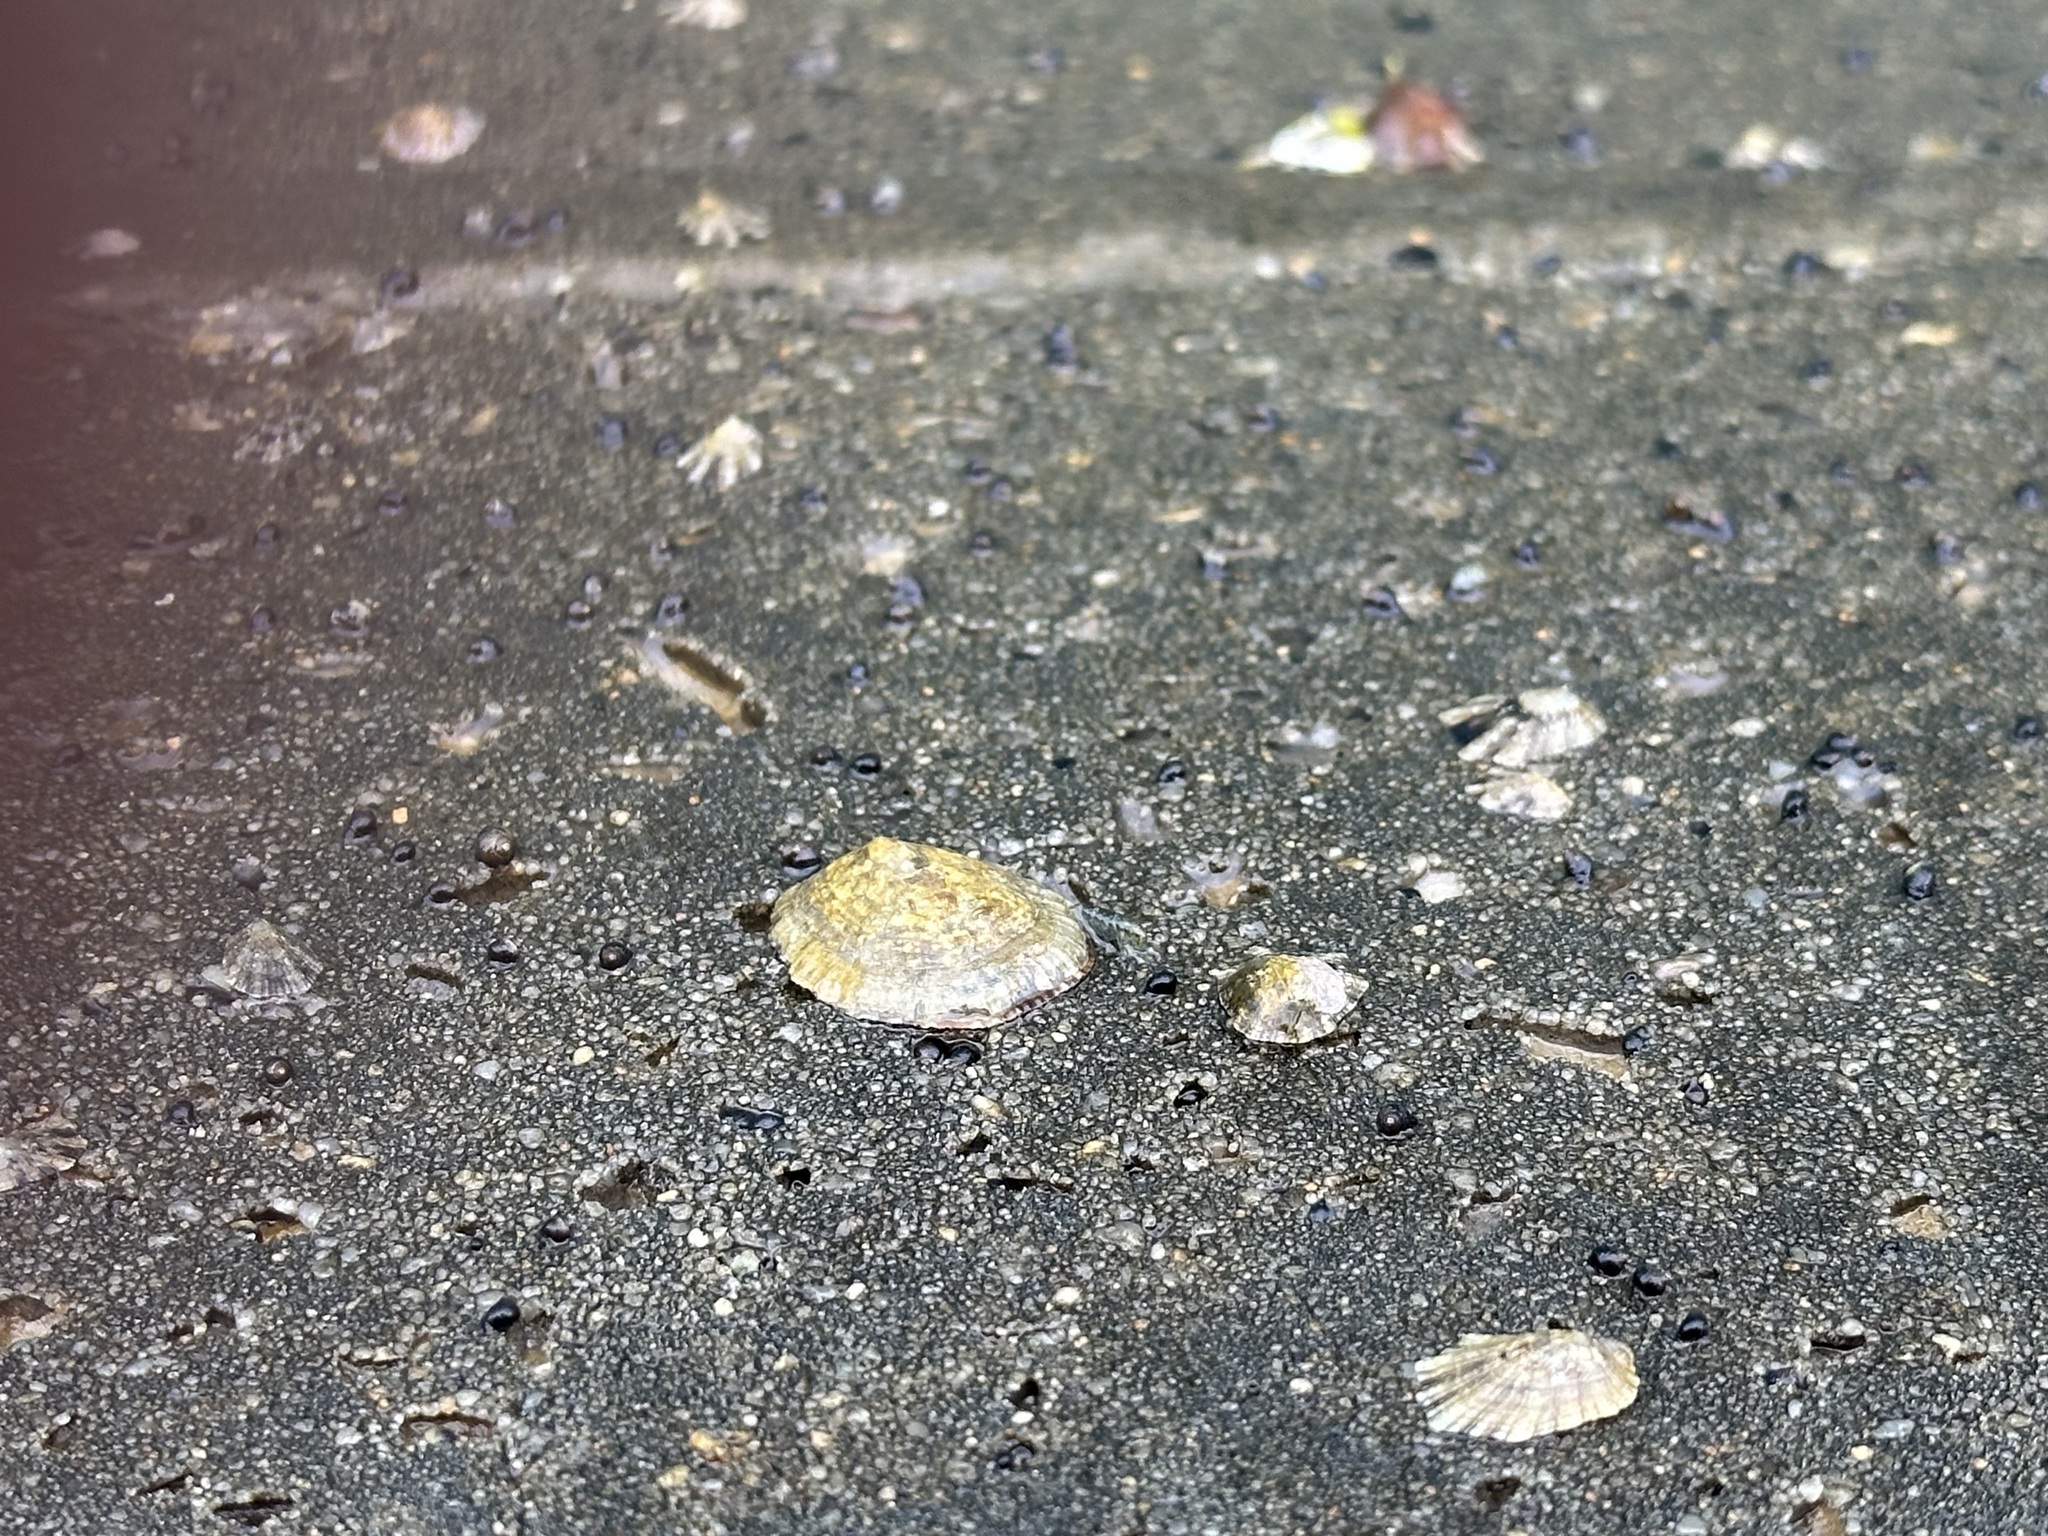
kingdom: Animalia
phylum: Mollusca
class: Gastropoda
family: Patellidae
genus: Patella
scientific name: Patella caerulea
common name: Mediterranean limpet
